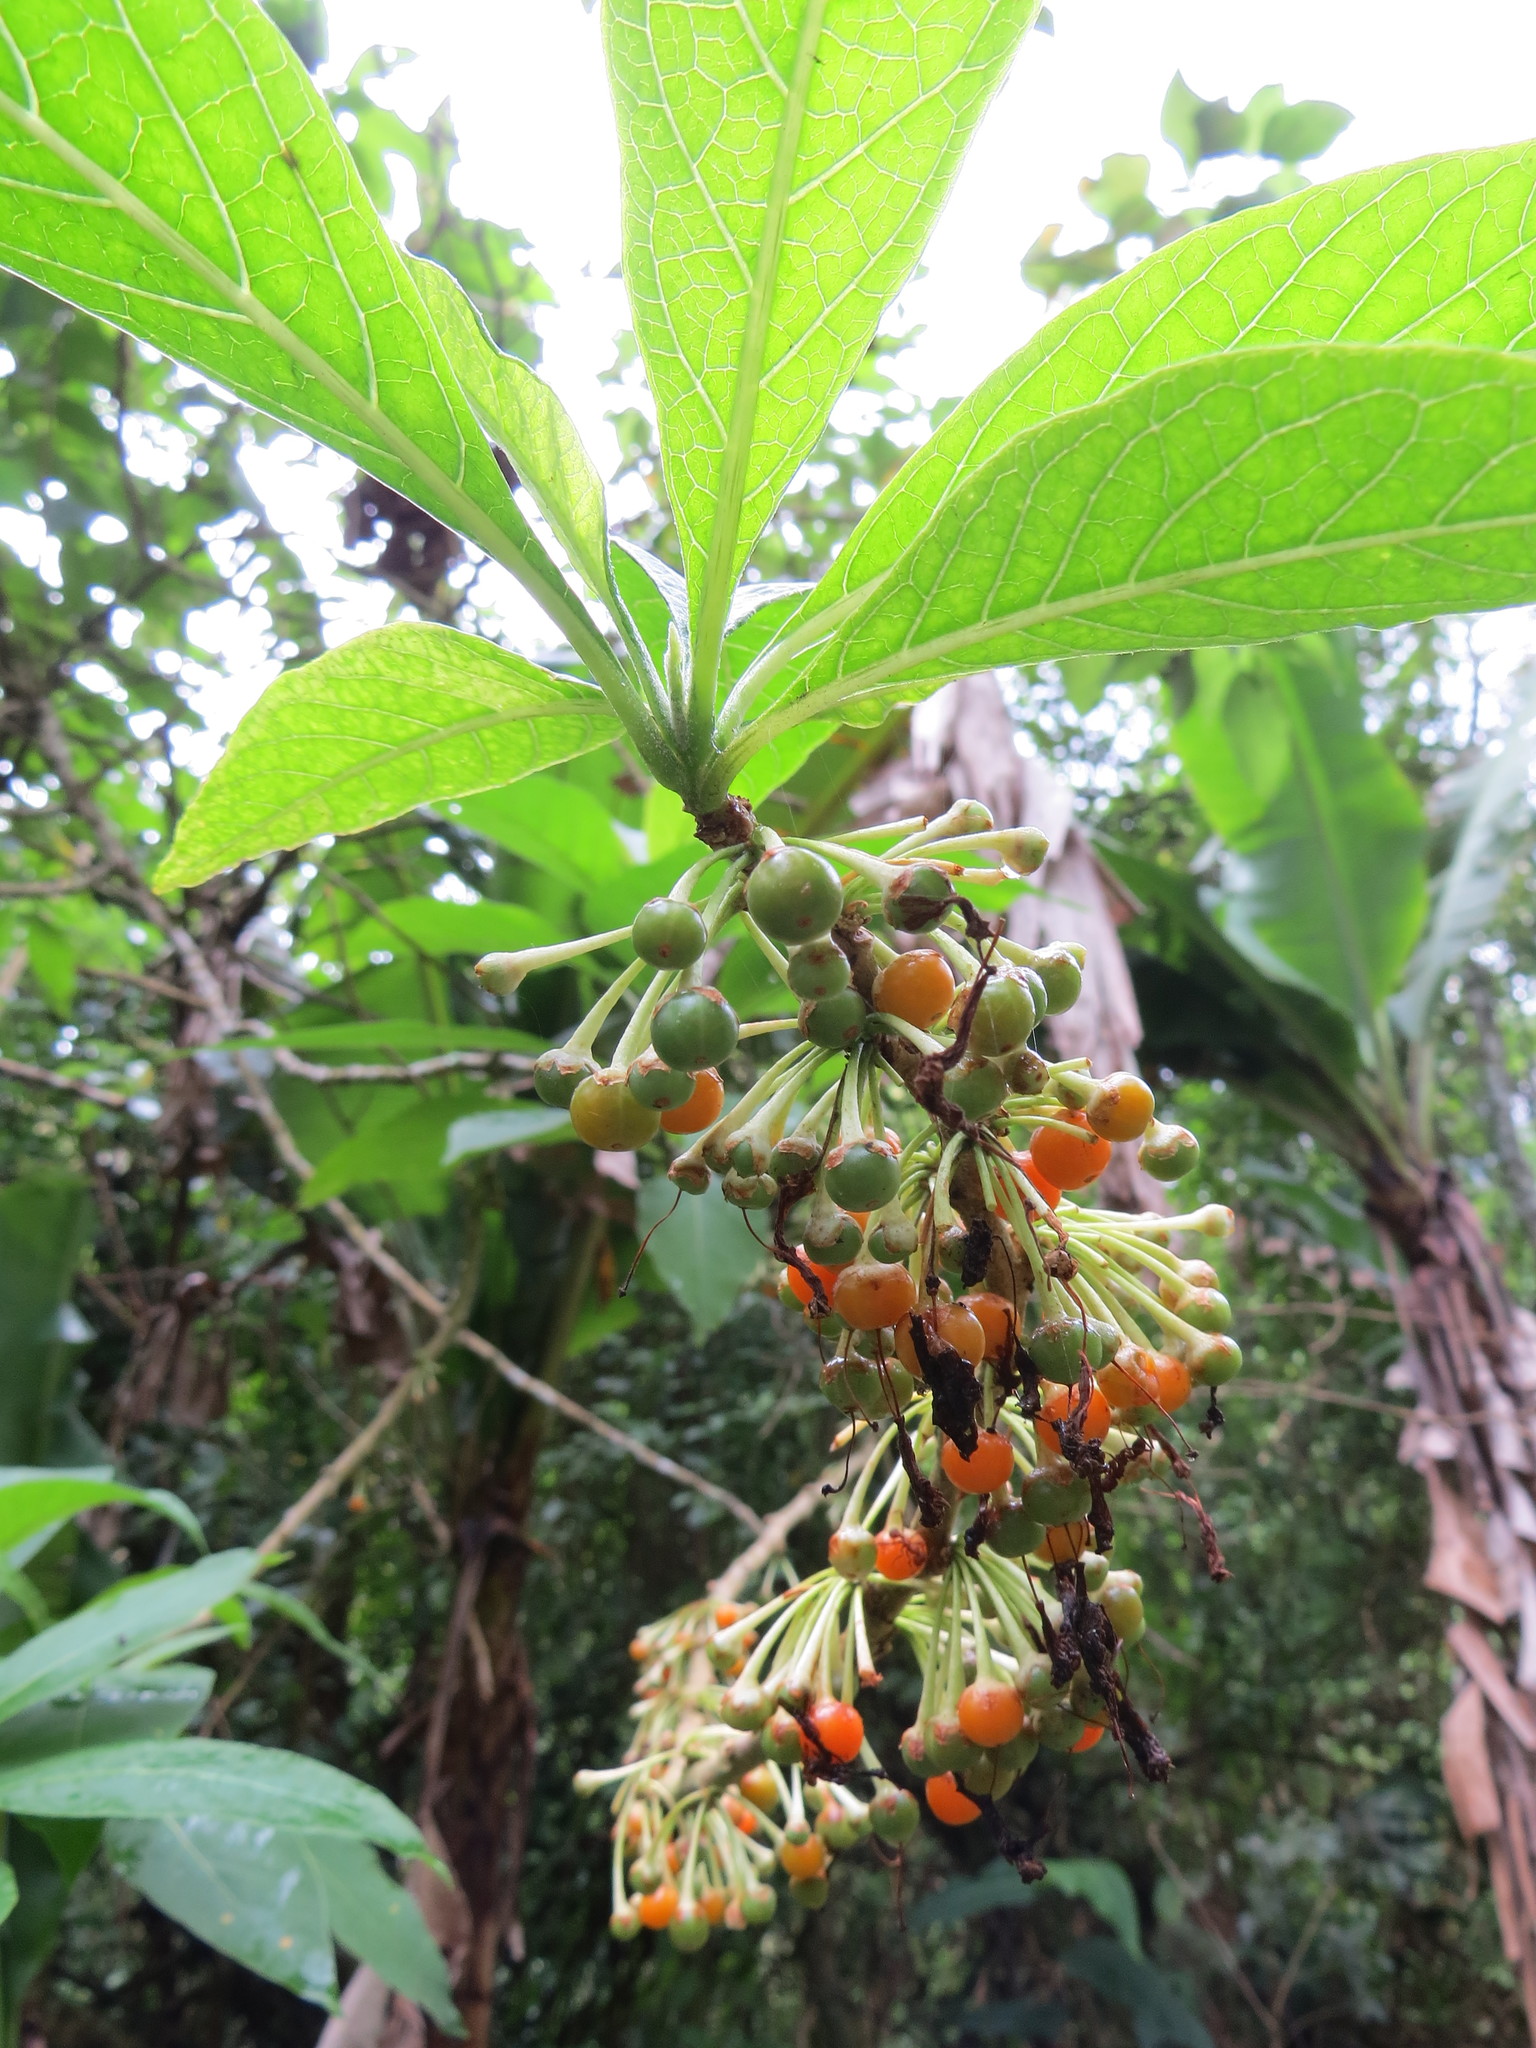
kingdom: Plantae
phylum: Tracheophyta
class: Magnoliopsida
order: Solanales
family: Solanaceae
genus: Iochroma
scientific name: Iochroma arborescens
